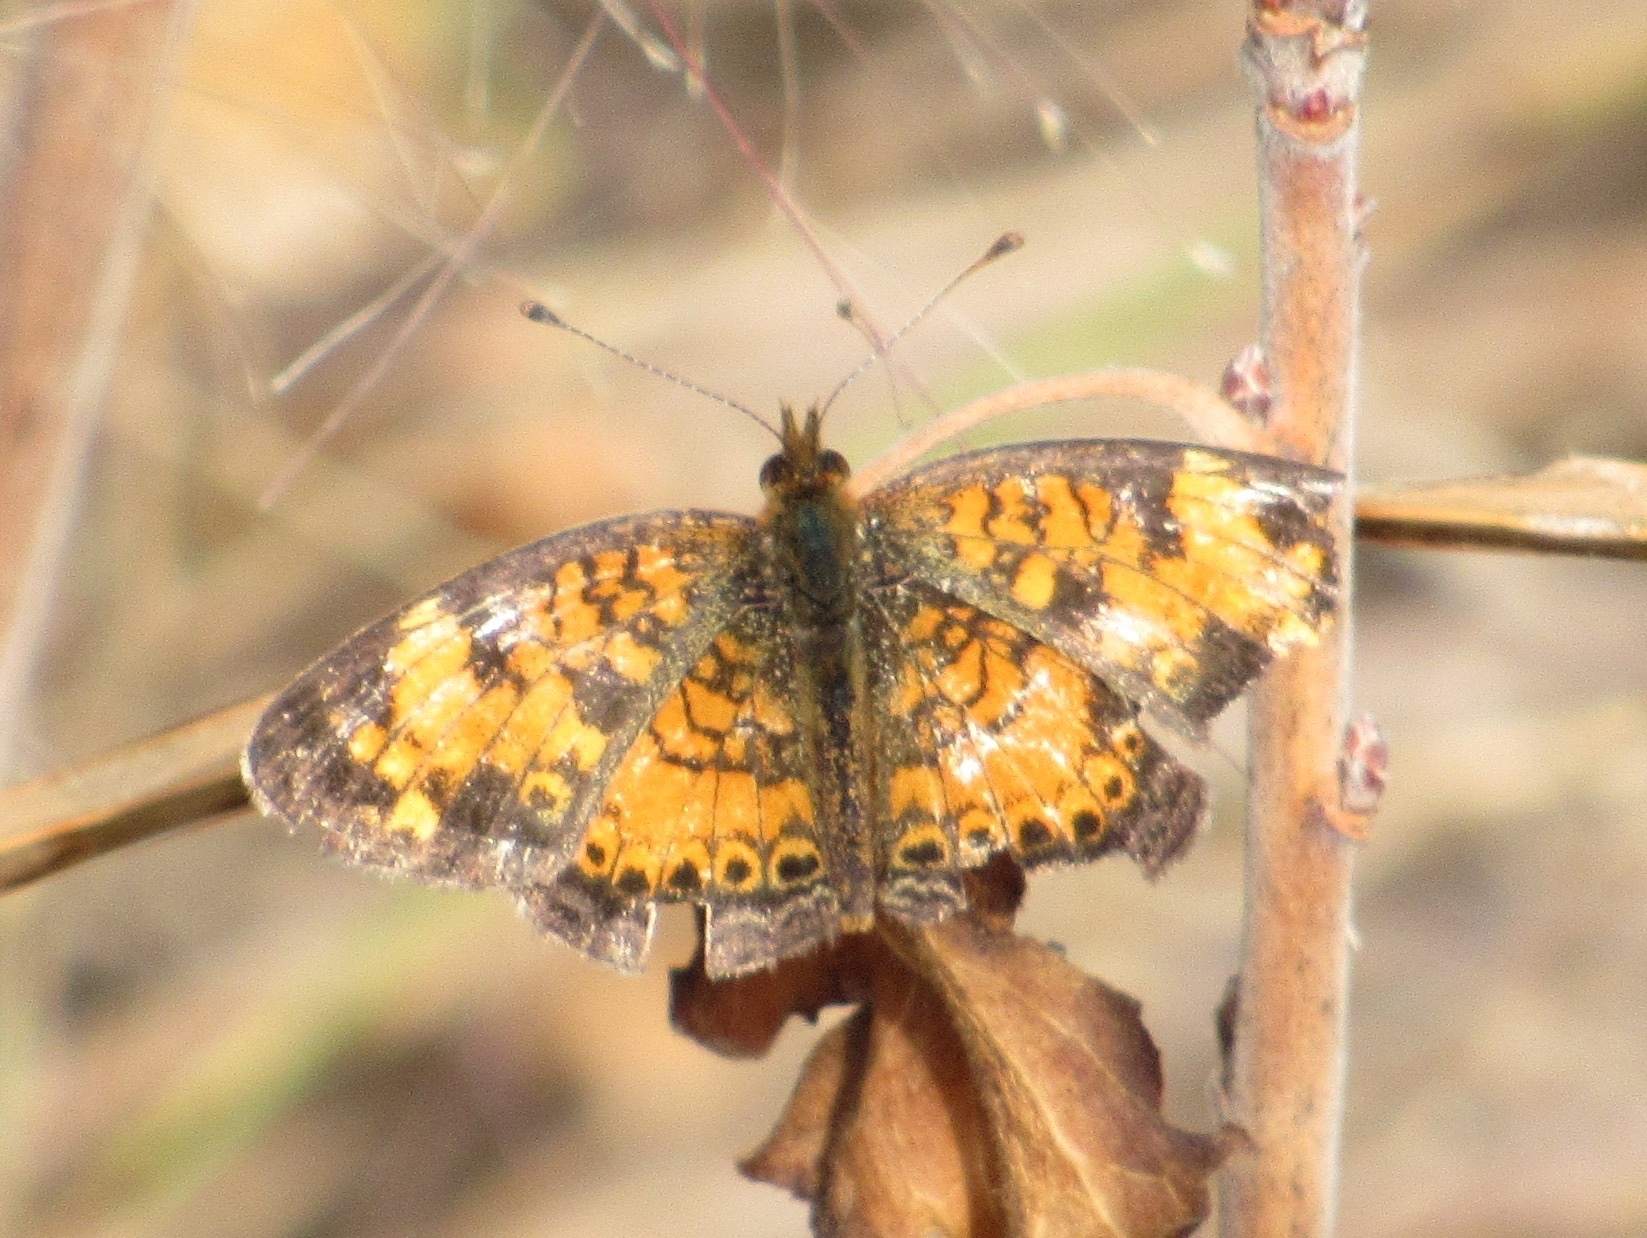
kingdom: Animalia
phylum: Arthropoda
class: Insecta
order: Lepidoptera
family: Nymphalidae
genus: Phyciodes
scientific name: Phyciodes tharos
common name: Pearl crescent
